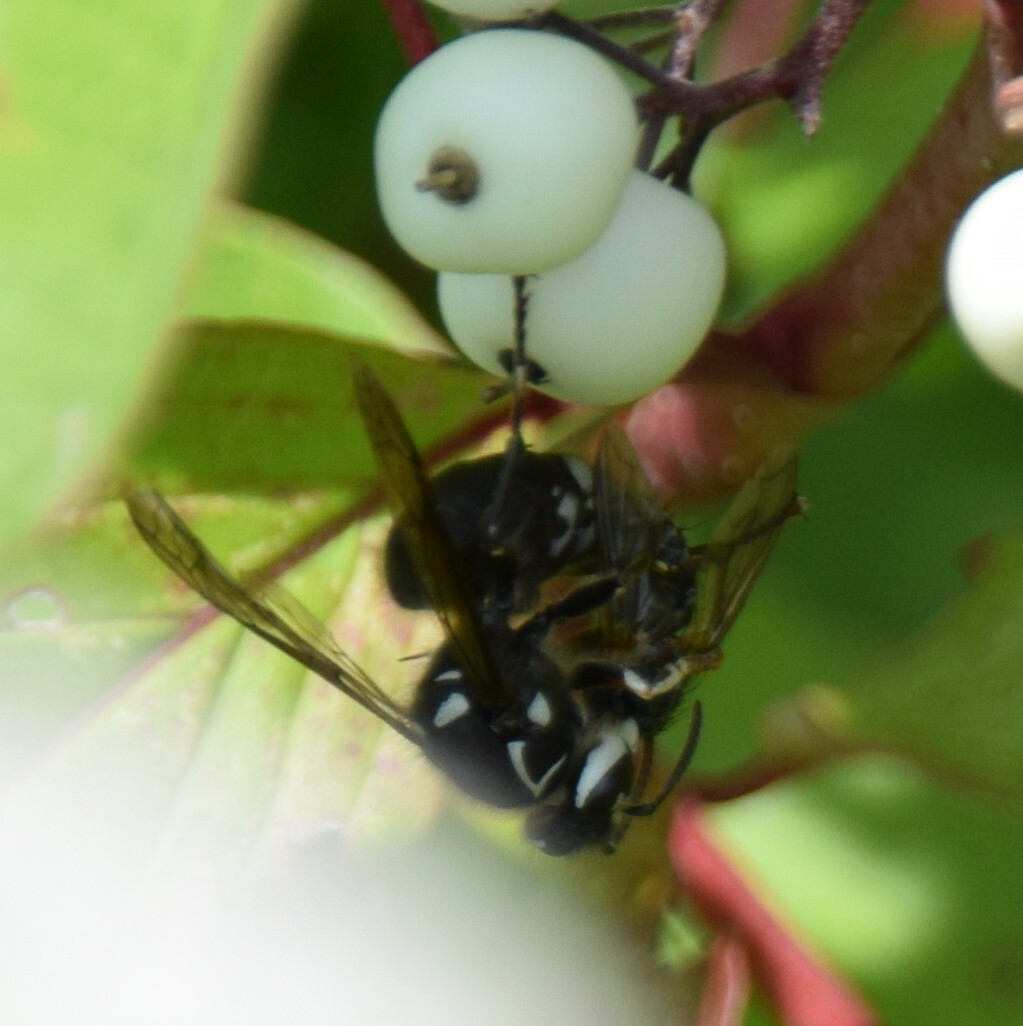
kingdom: Animalia
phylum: Arthropoda
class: Insecta
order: Hymenoptera
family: Vespidae
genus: Dolichovespula
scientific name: Dolichovespula maculata
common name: Bald-faced hornet
